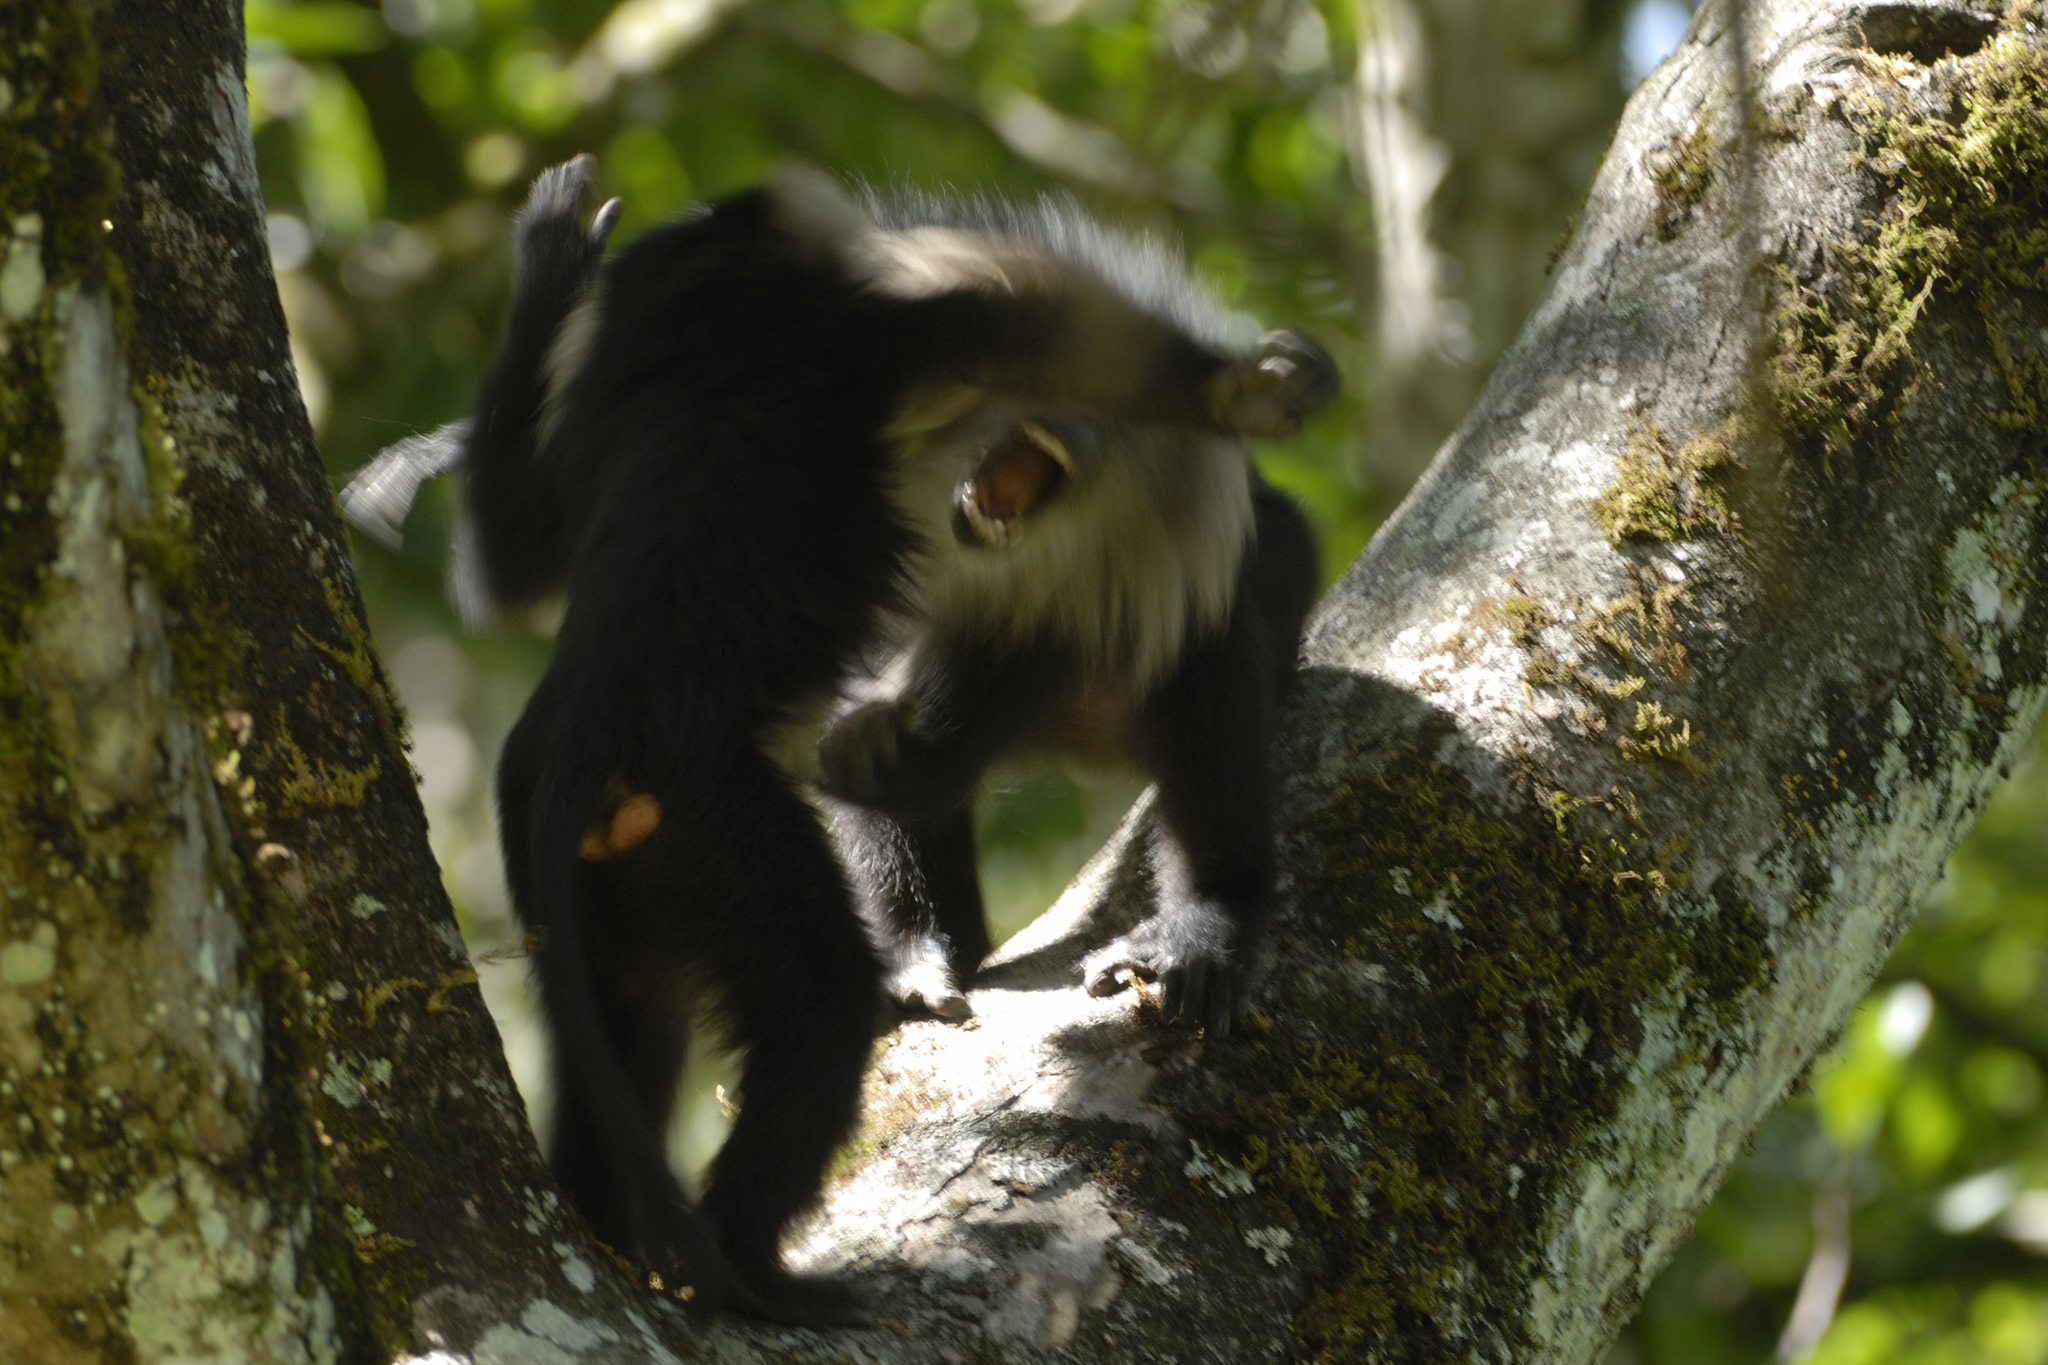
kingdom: Animalia
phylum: Chordata
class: Mammalia
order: Primates
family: Cercopithecidae
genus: Macaca
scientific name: Macaca silenus
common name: Lion-tailed macaque
